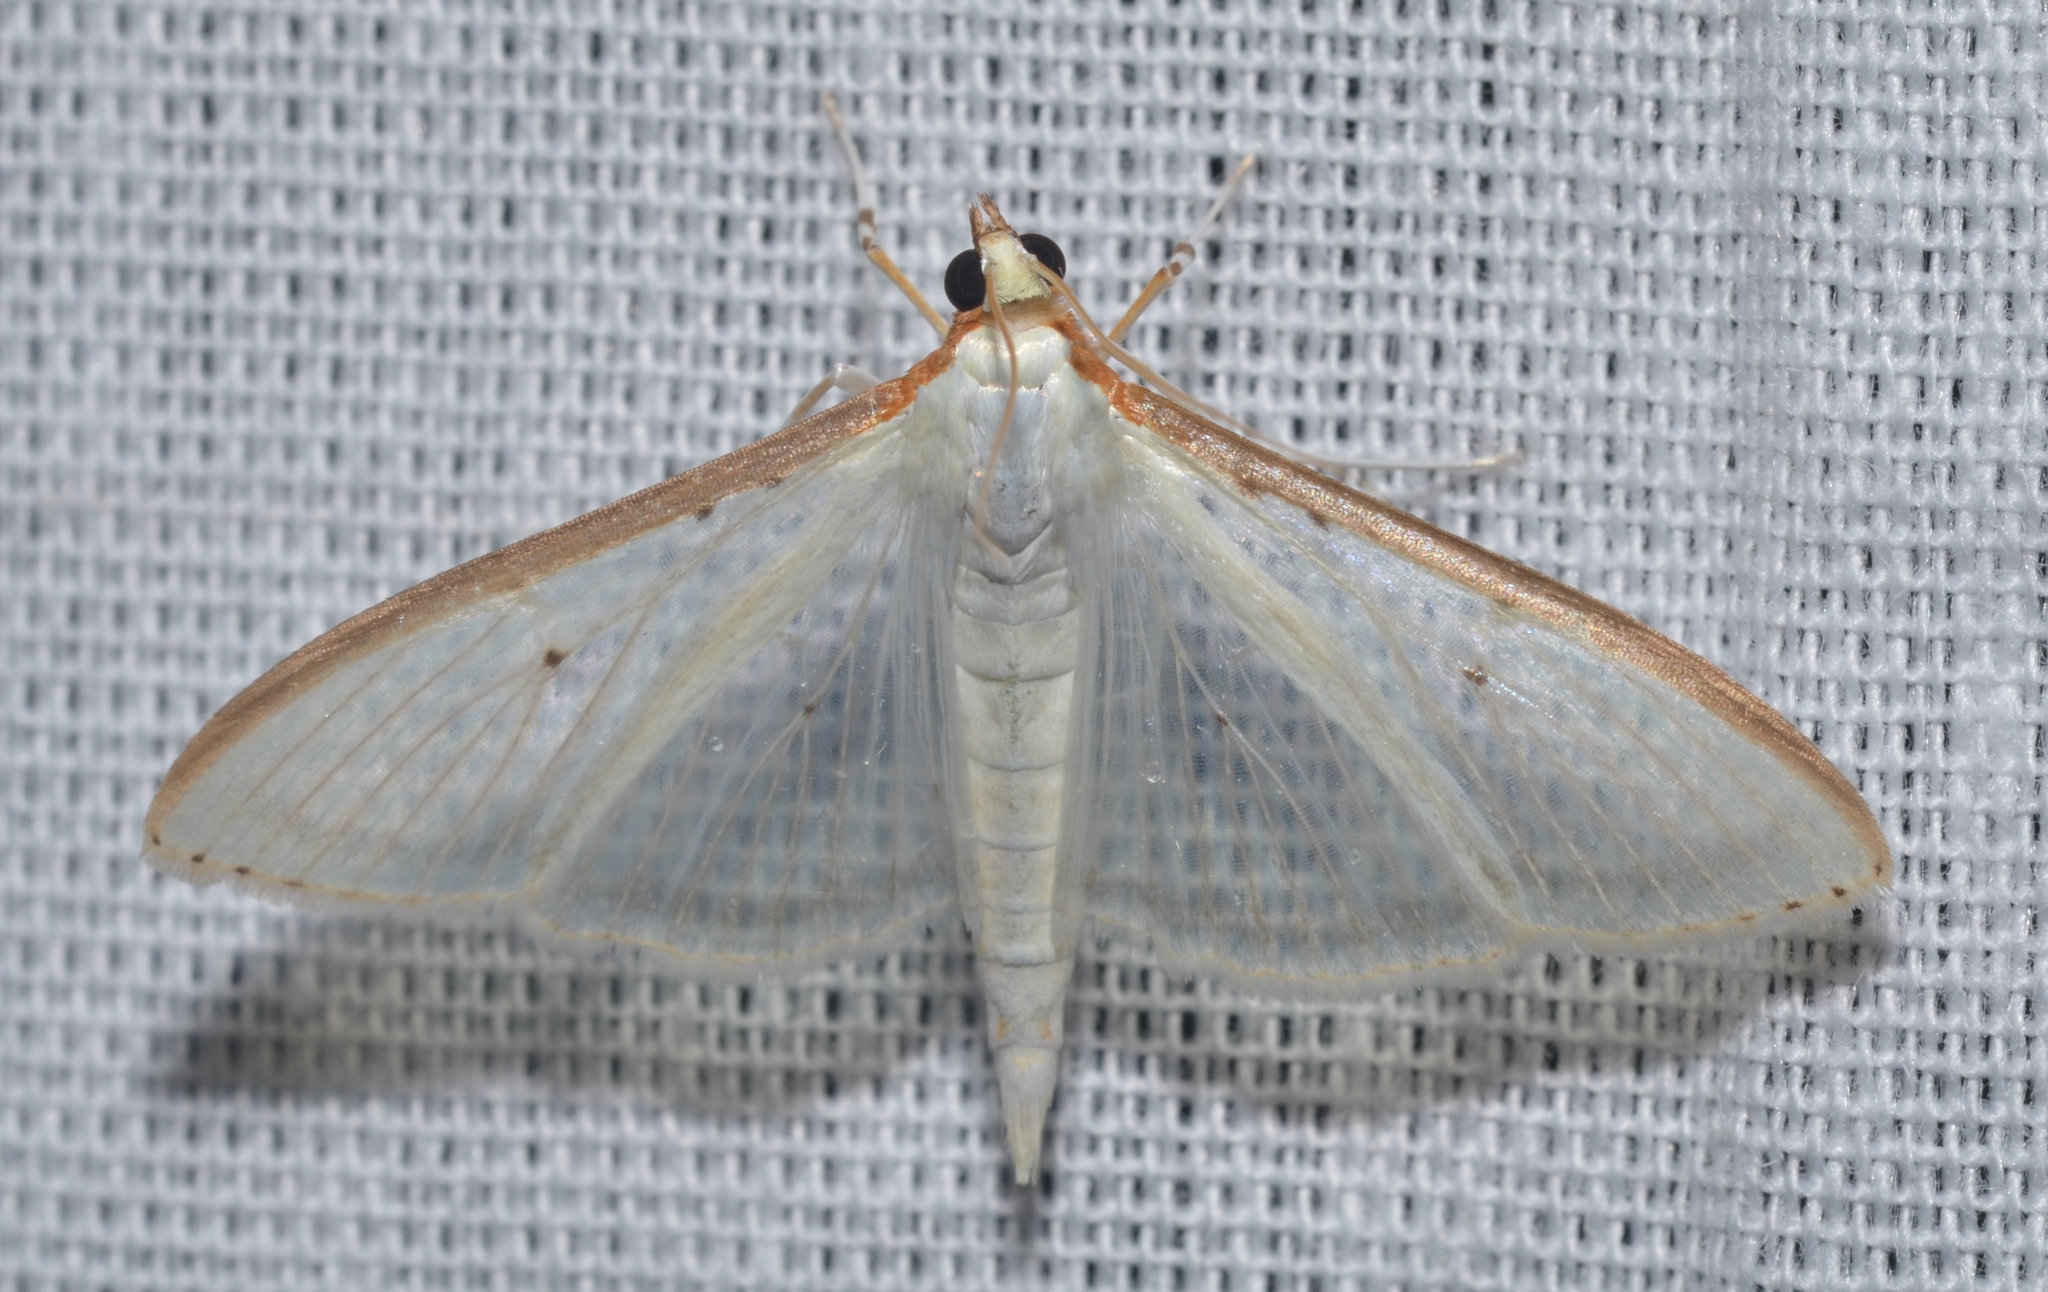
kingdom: Animalia
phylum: Arthropoda
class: Insecta
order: Lepidoptera
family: Crambidae
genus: Palpita
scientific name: Palpita quadristigmalis
